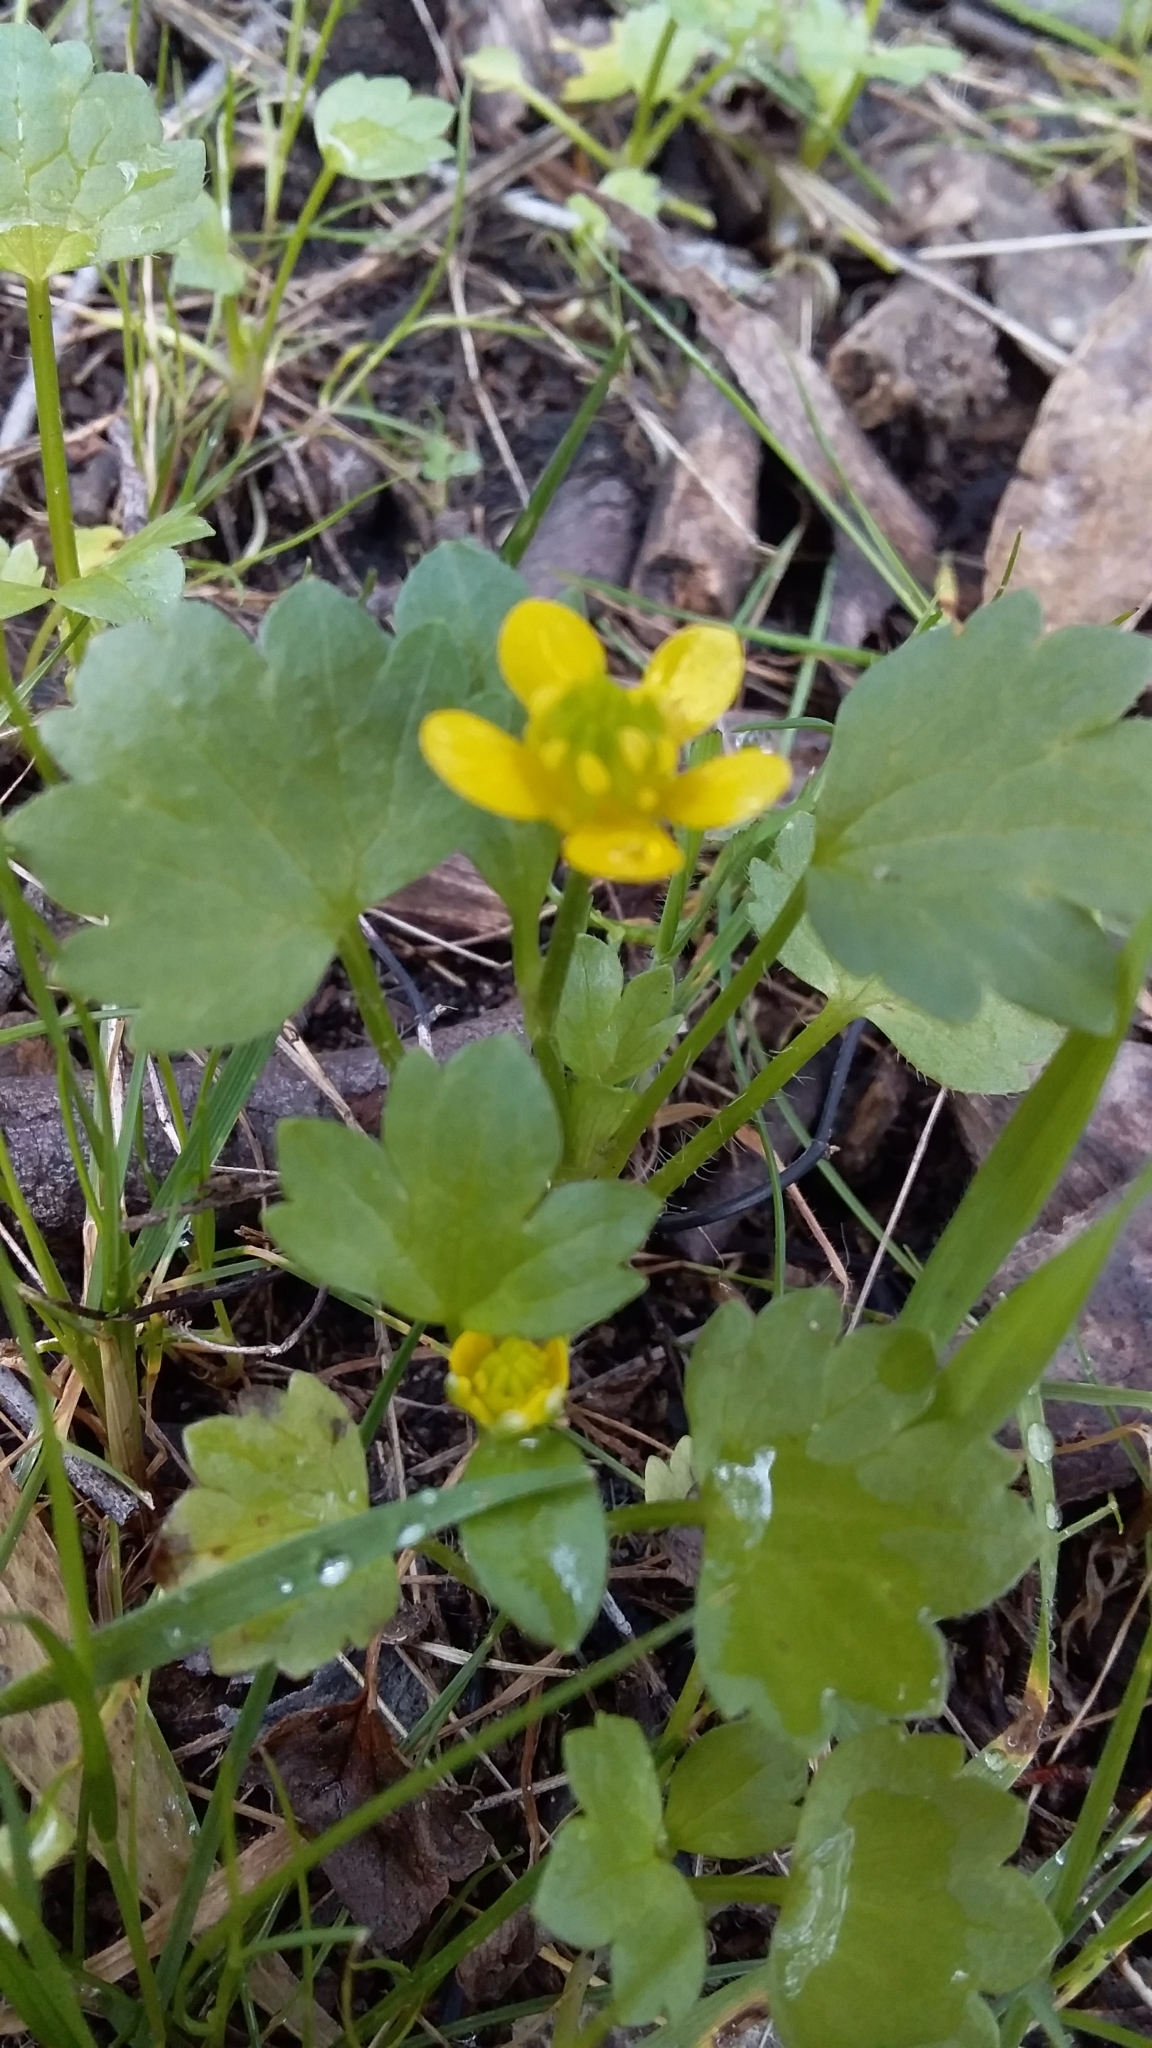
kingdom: Plantae
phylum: Tracheophyta
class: Magnoliopsida
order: Ranunculales
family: Ranunculaceae
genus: Ranunculus
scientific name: Ranunculus muricatus
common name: Rough-fruited buttercup
